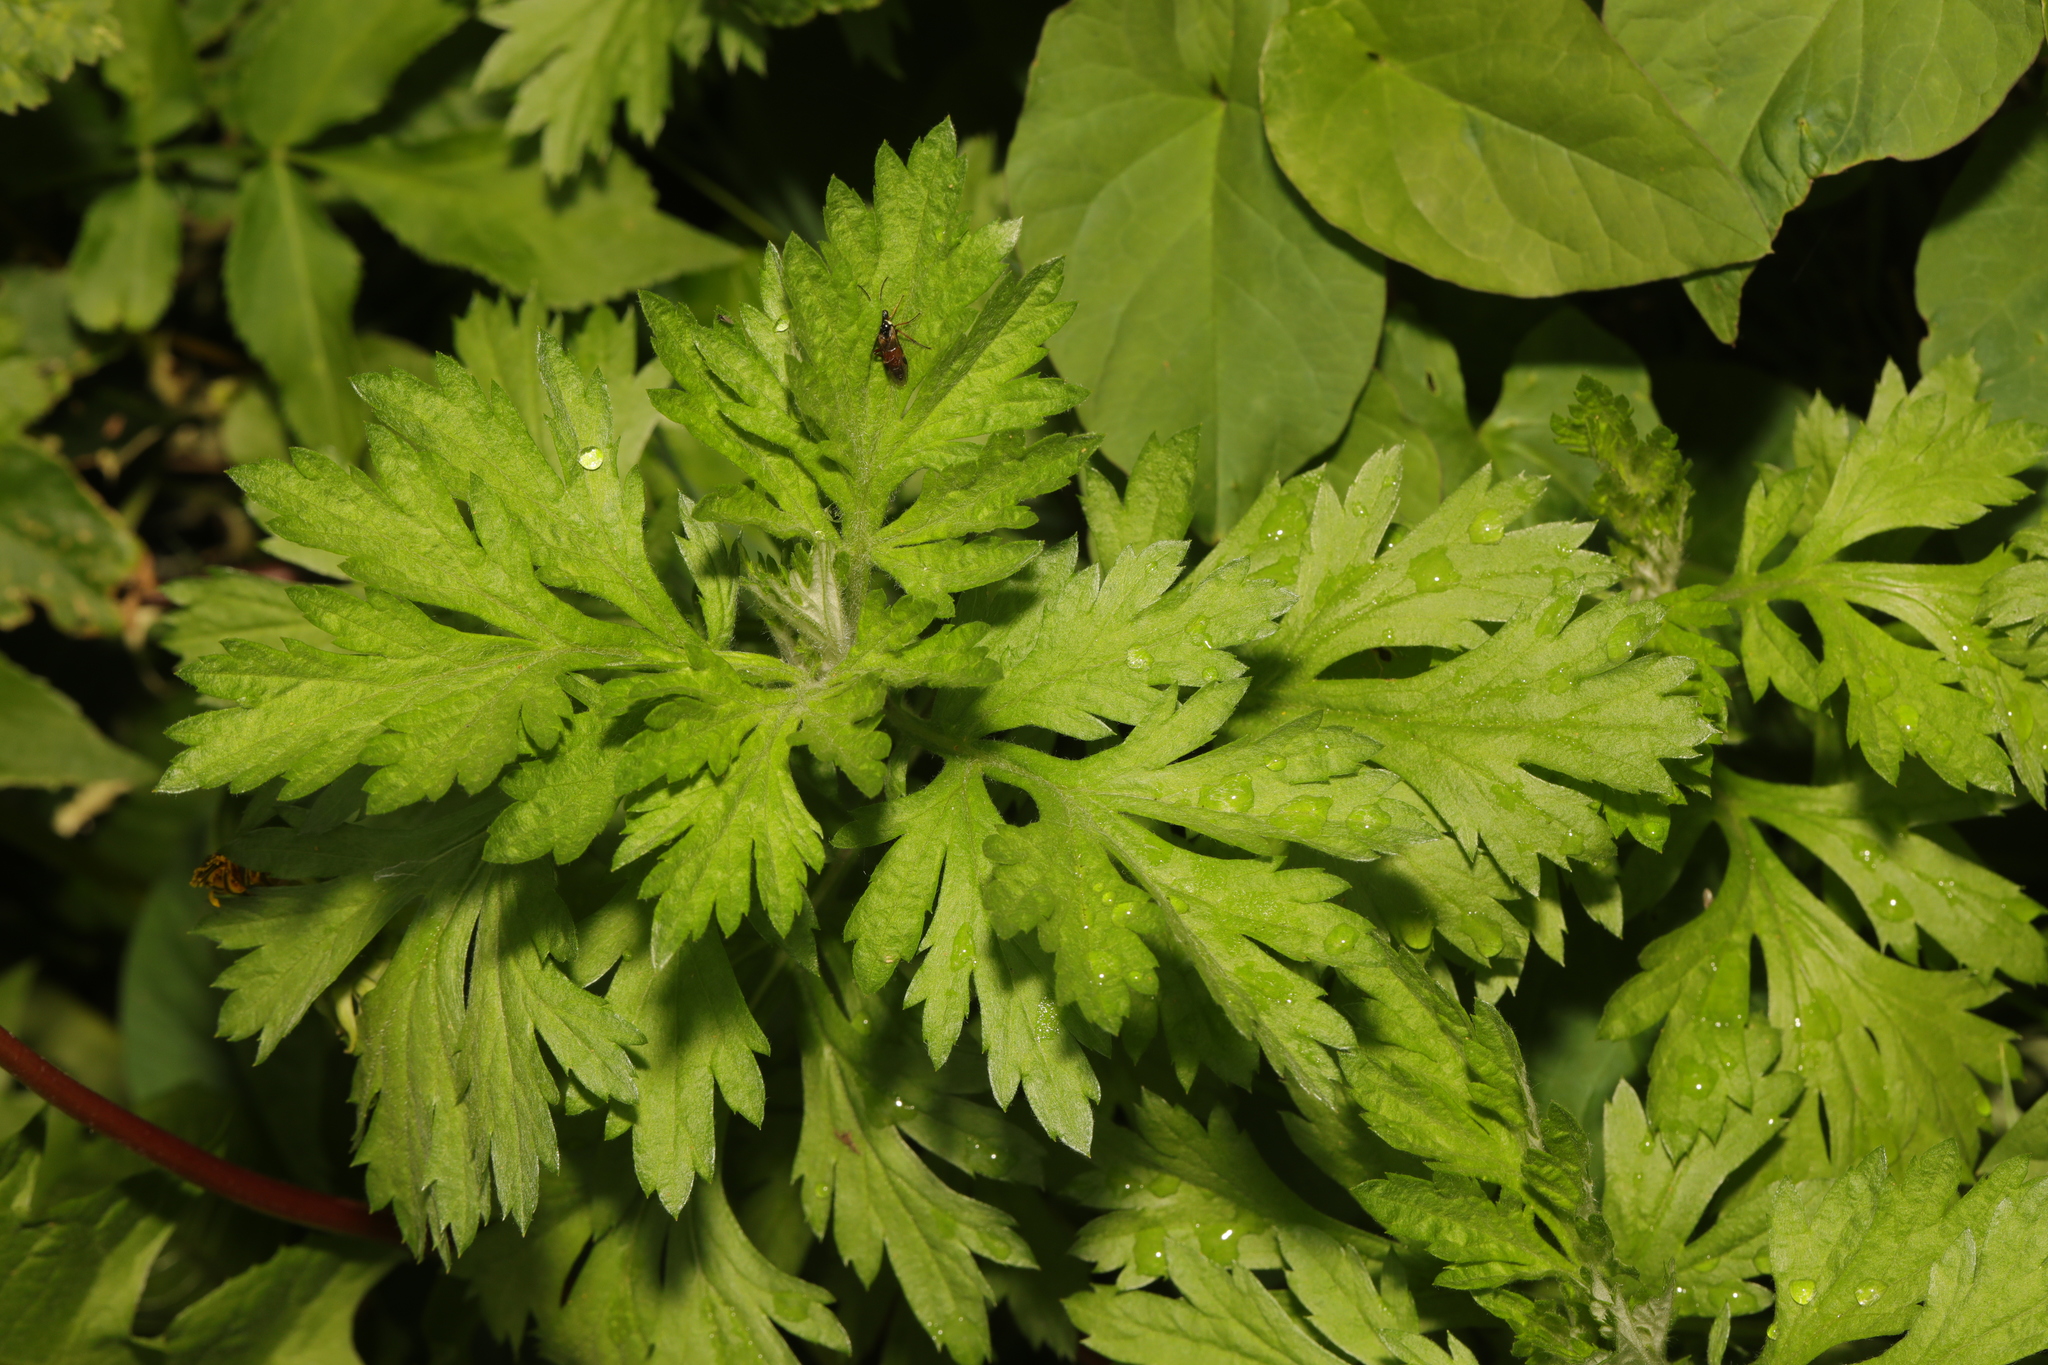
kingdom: Plantae
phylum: Tracheophyta
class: Magnoliopsida
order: Asterales
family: Asteraceae
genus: Artemisia
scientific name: Artemisia vulgaris
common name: Mugwort
